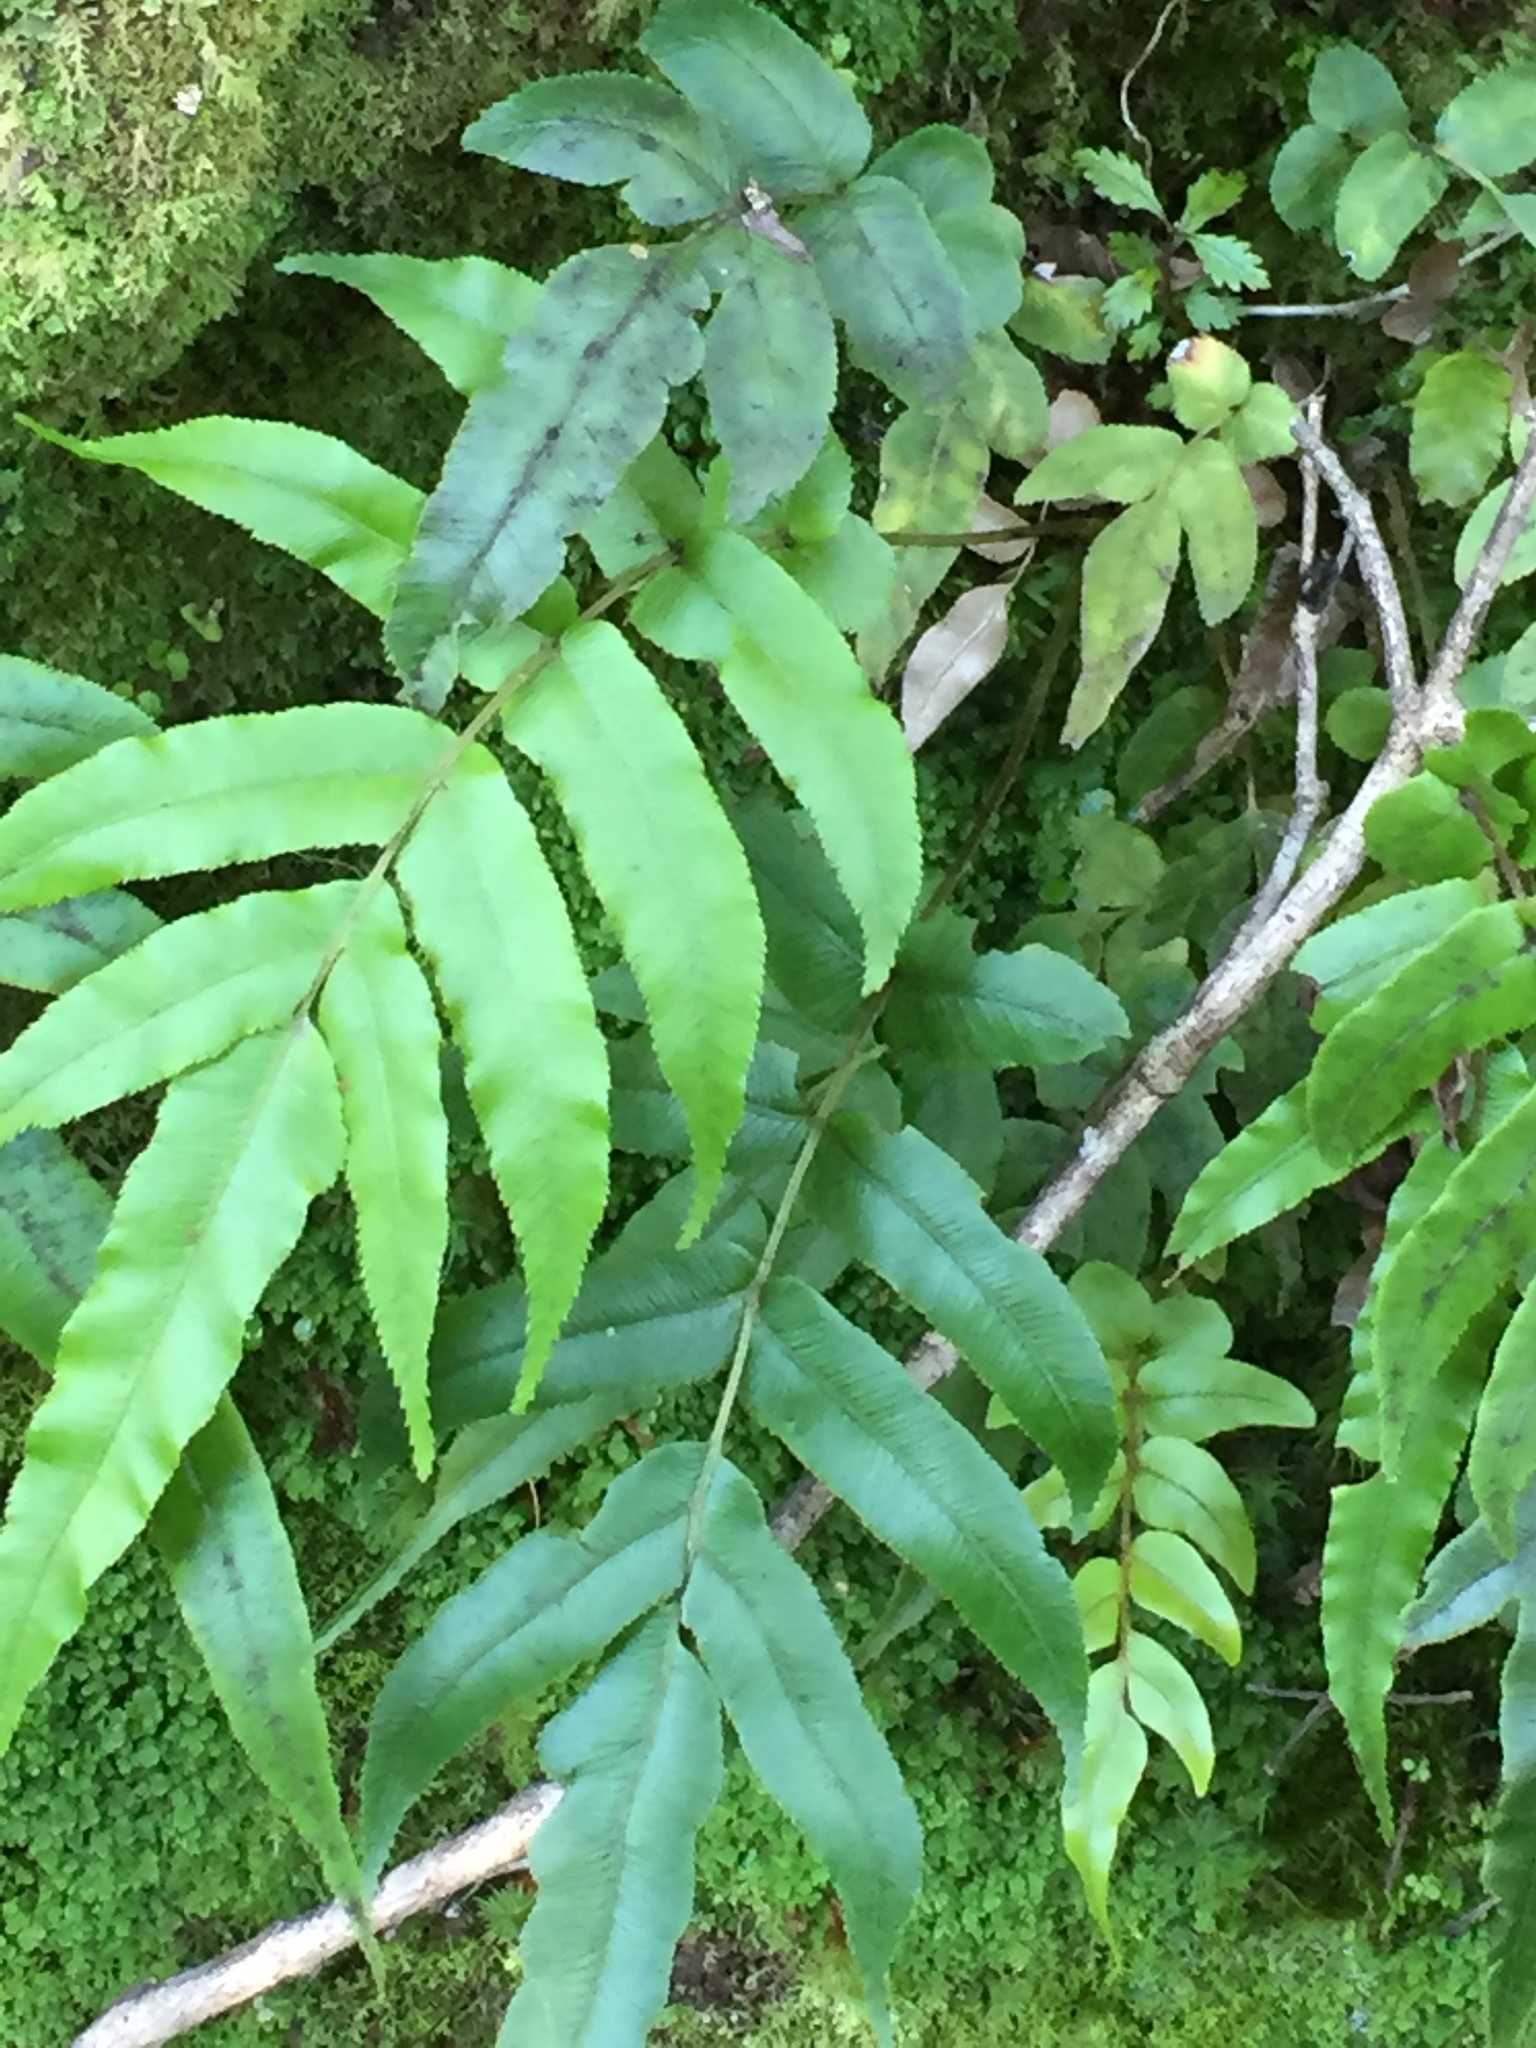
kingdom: Plantae
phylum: Tracheophyta
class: Polypodiopsida
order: Polypodiales
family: Blechnaceae
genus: Parablechnum
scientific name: Parablechnum novae-zelandiae
